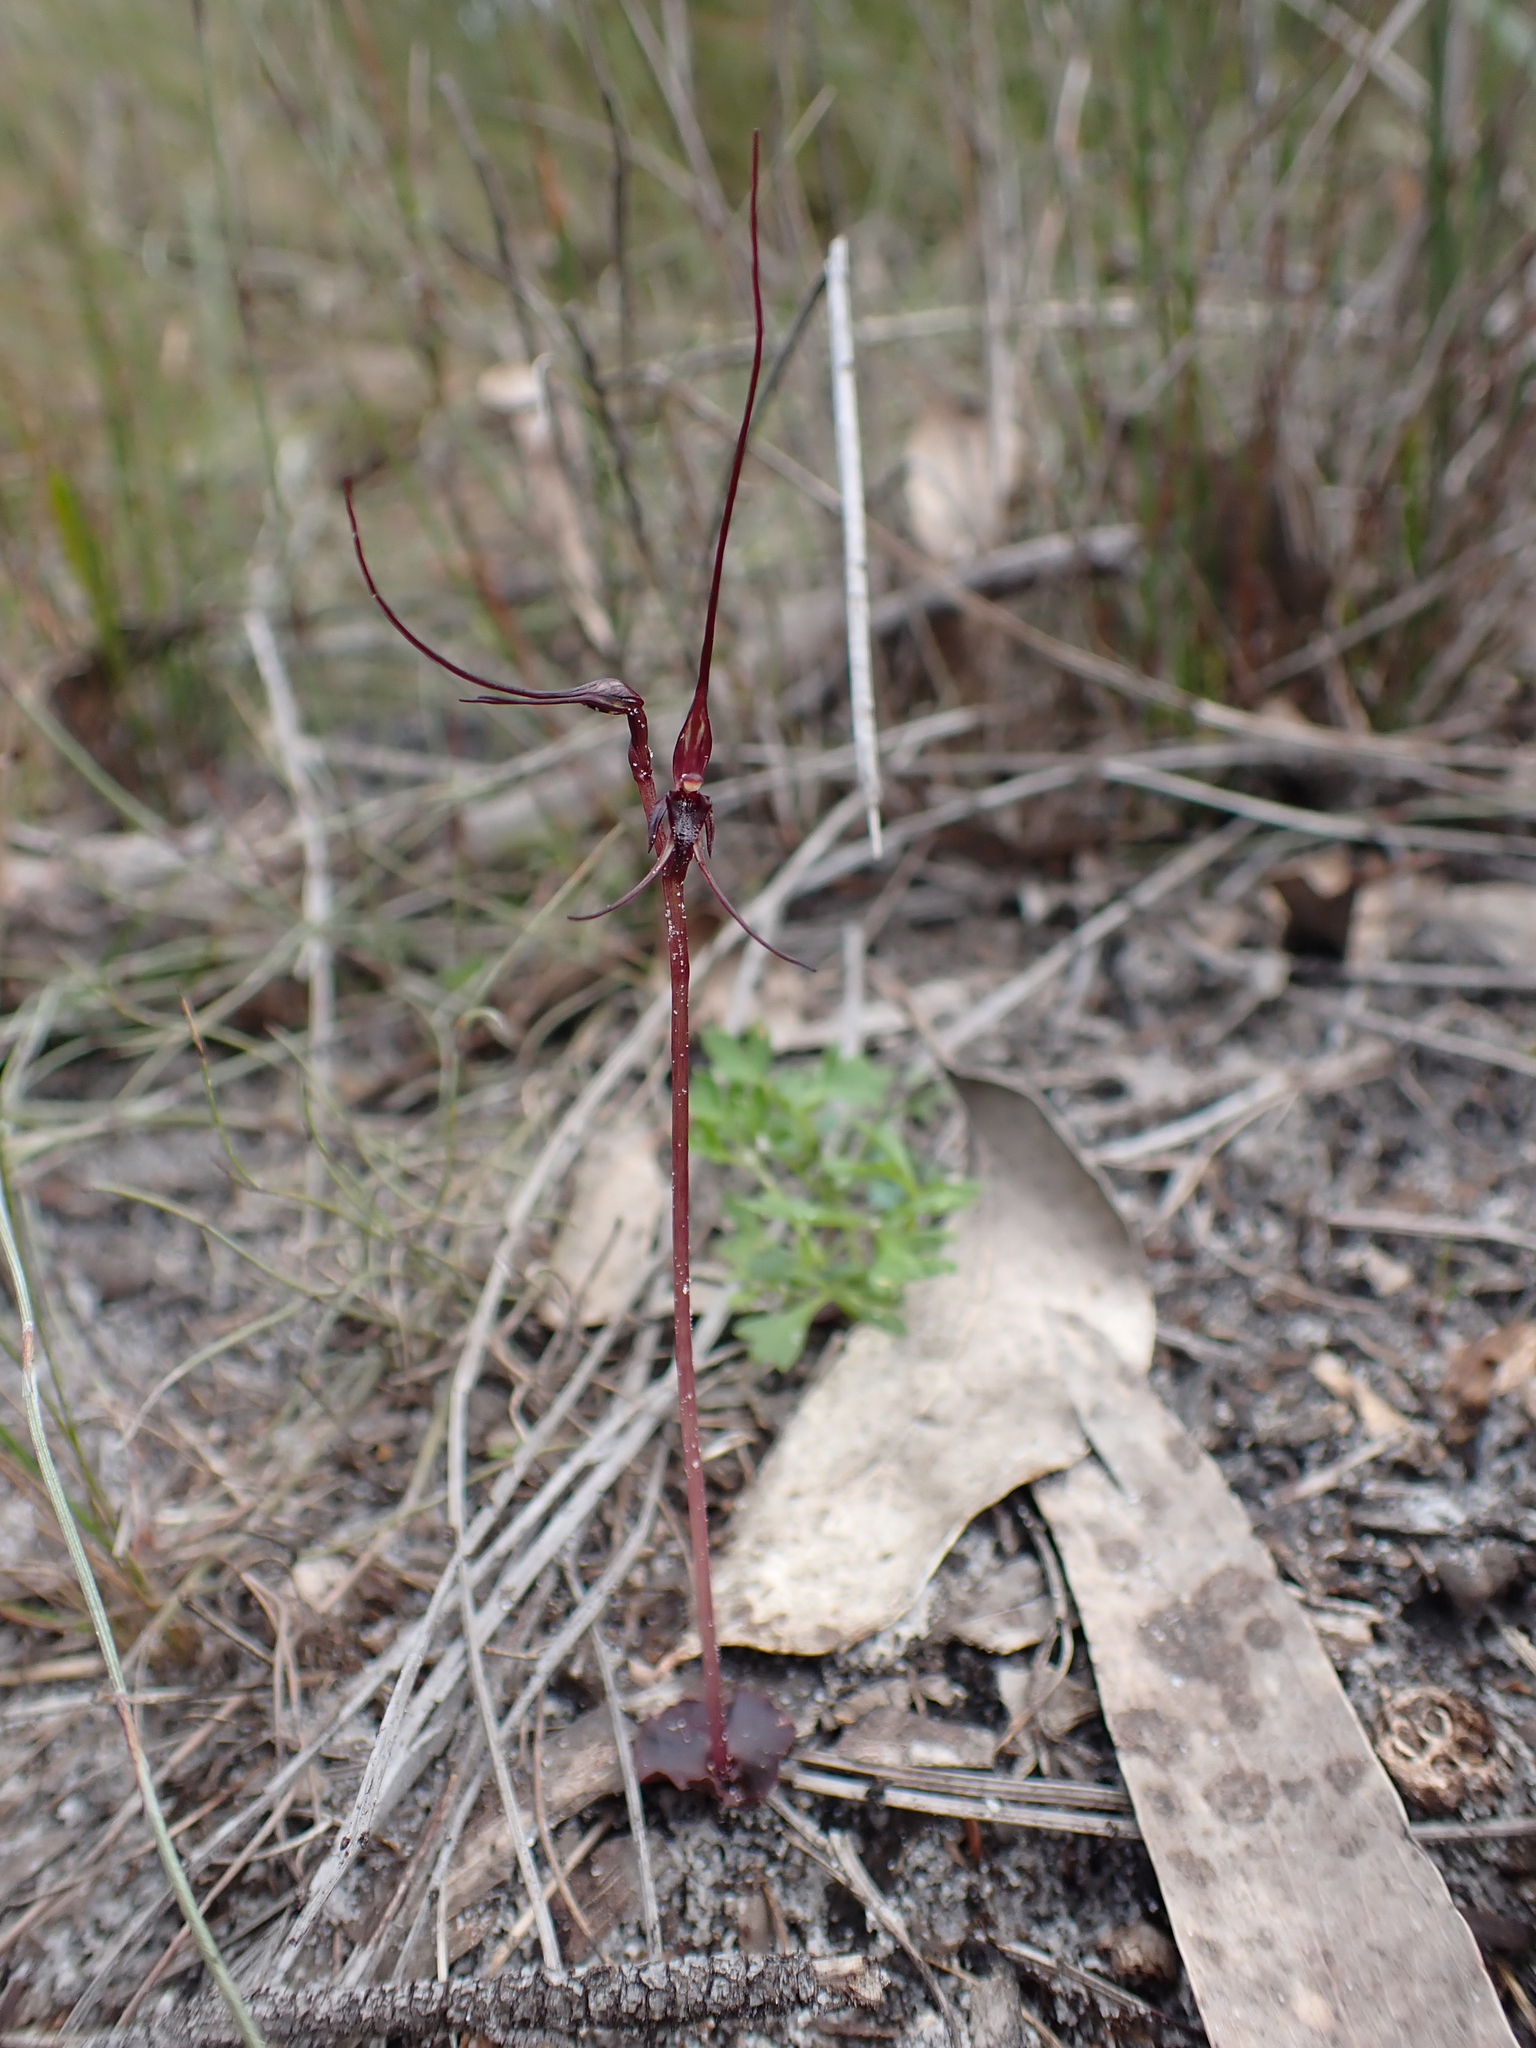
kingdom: Plantae
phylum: Tracheophyta
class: Liliopsida
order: Asparagales
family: Orchidaceae
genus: Acianthus
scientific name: Acianthus caudatus
